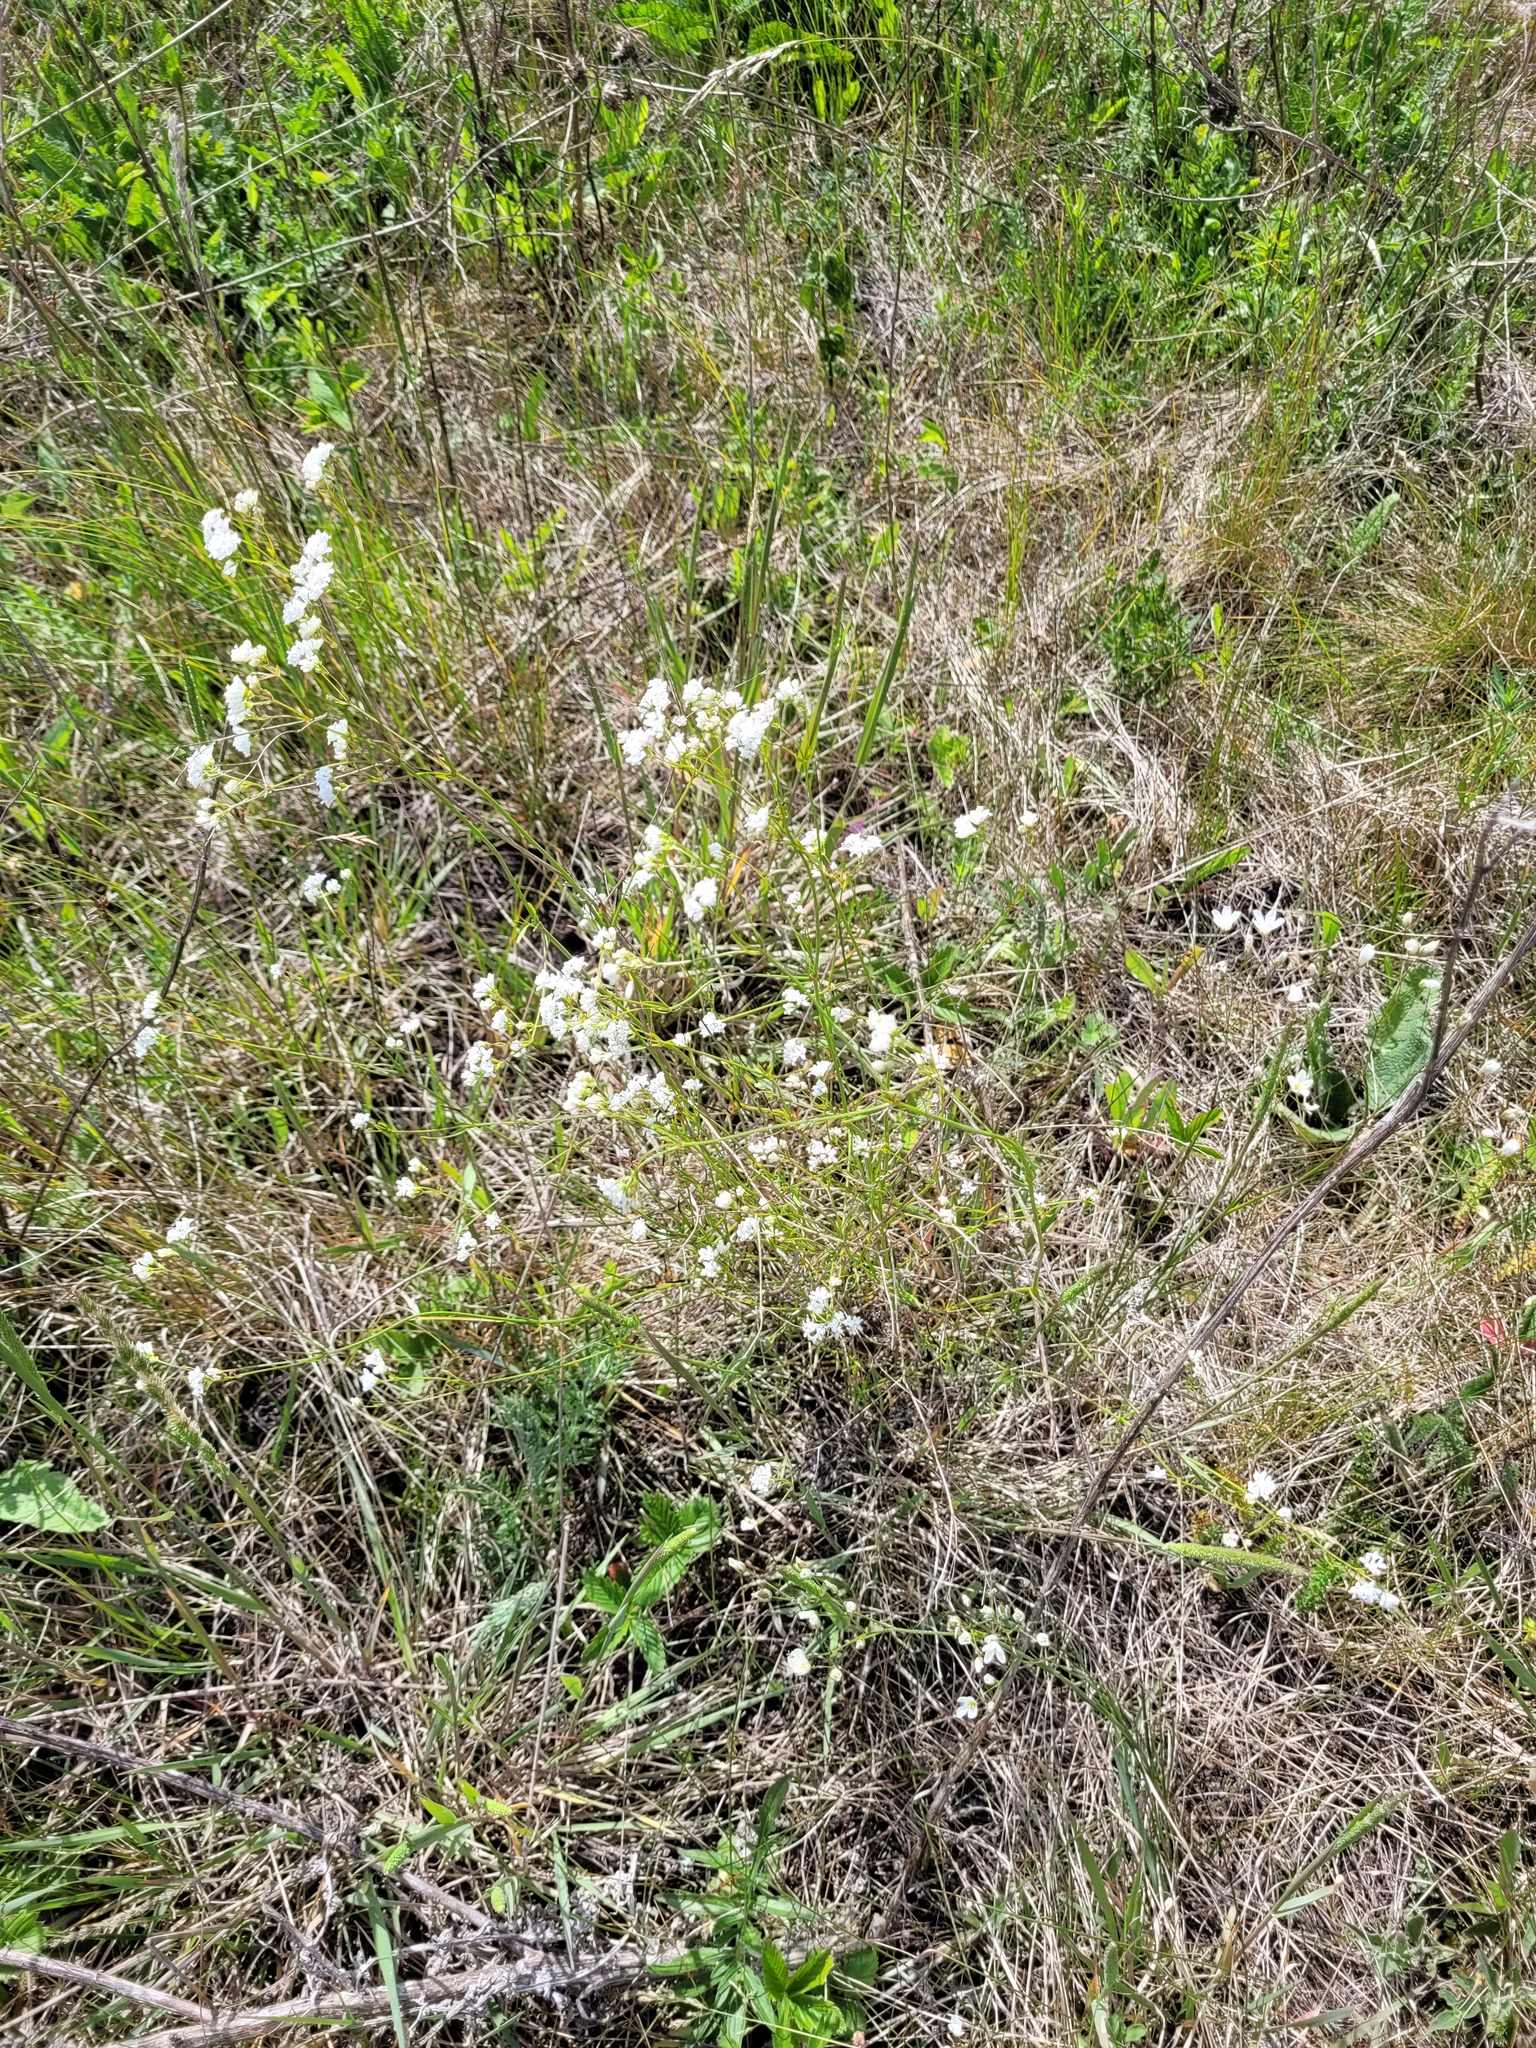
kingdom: Plantae
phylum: Tracheophyta
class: Magnoliopsida
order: Gentianales
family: Rubiaceae
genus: Asperula
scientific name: Asperula tinctoria
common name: Dyer's woodruff
